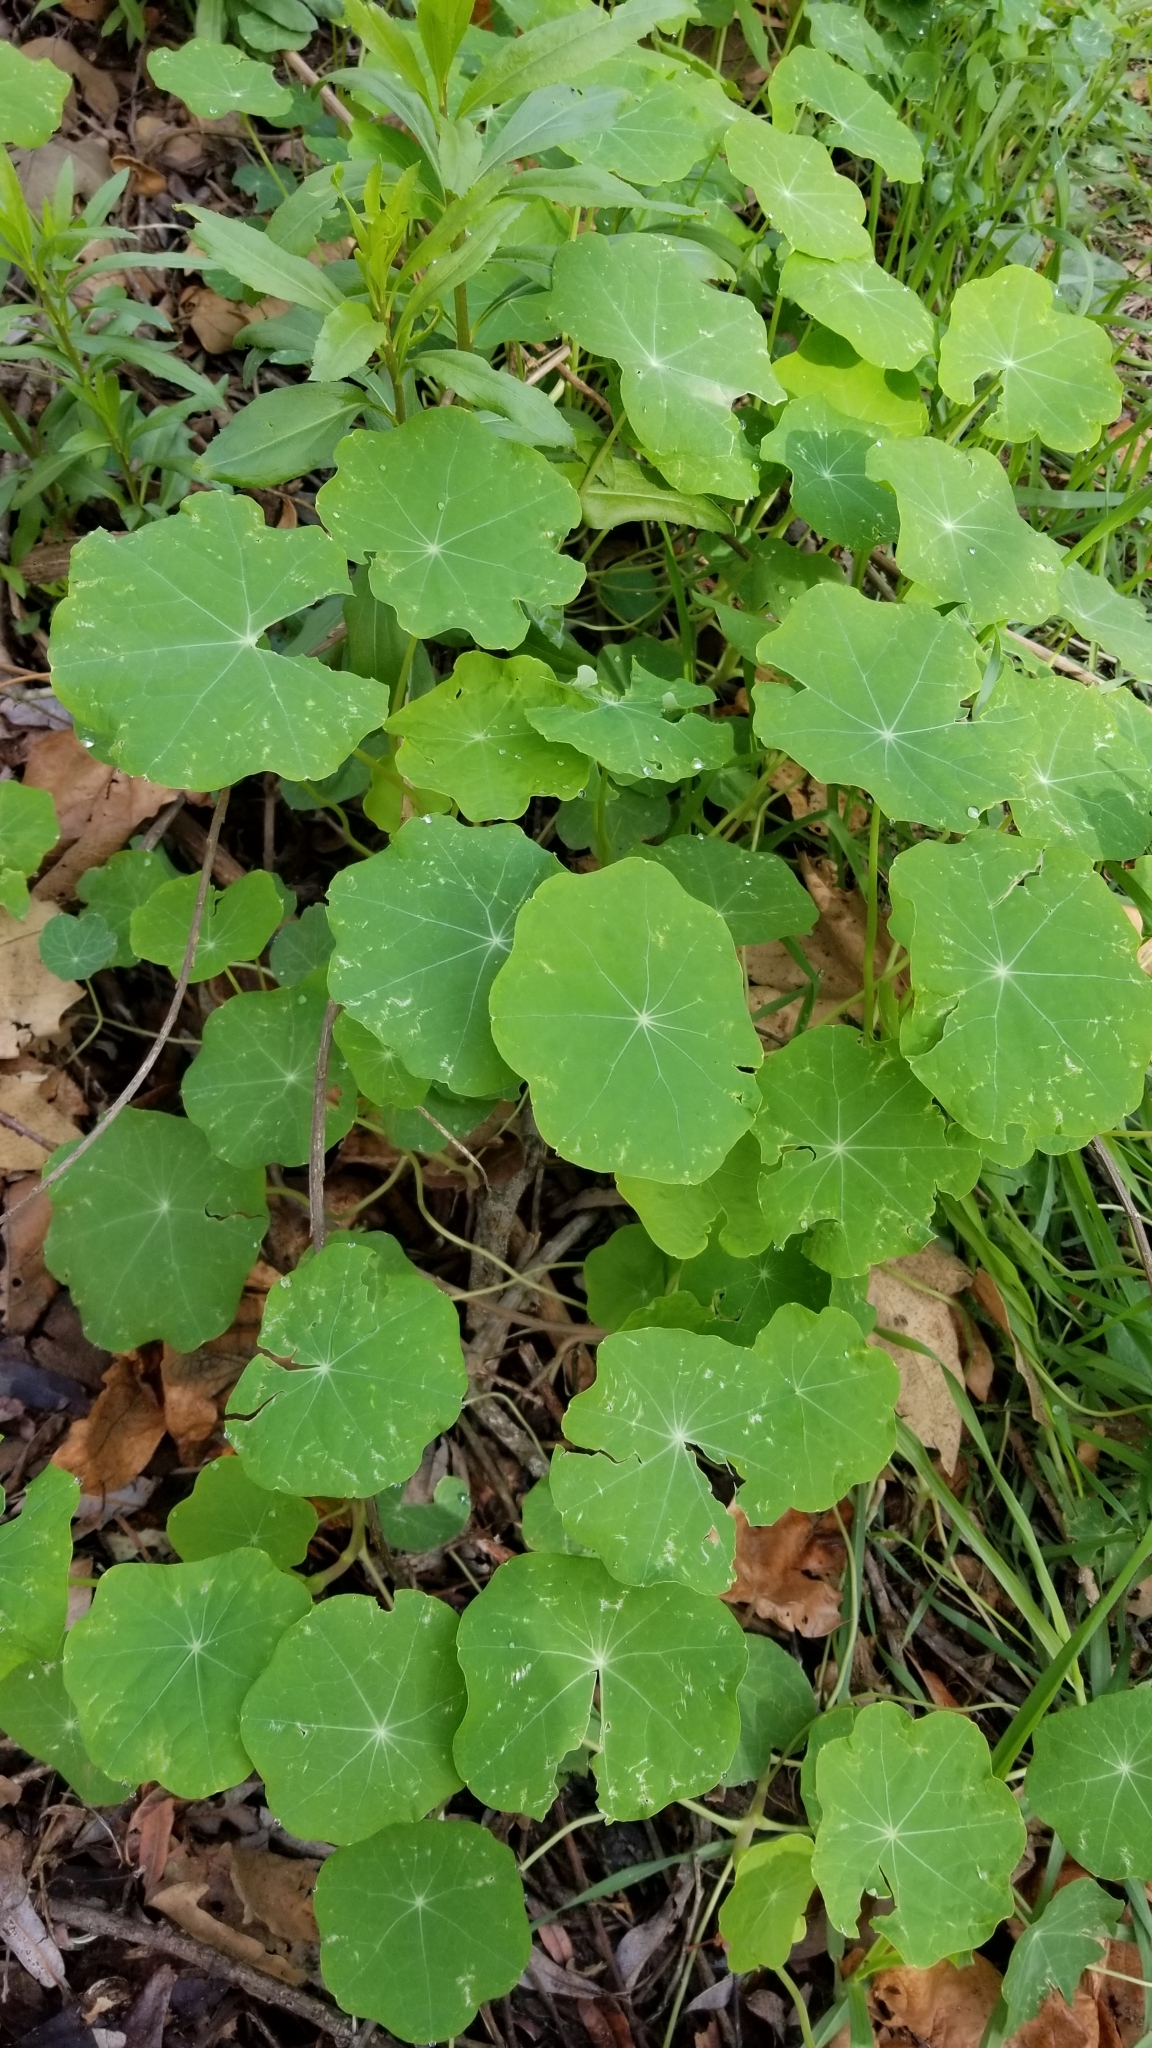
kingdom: Plantae
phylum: Tracheophyta
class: Magnoliopsida
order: Brassicales
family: Tropaeolaceae
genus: Tropaeolum
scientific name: Tropaeolum majus
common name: Nasturtium
